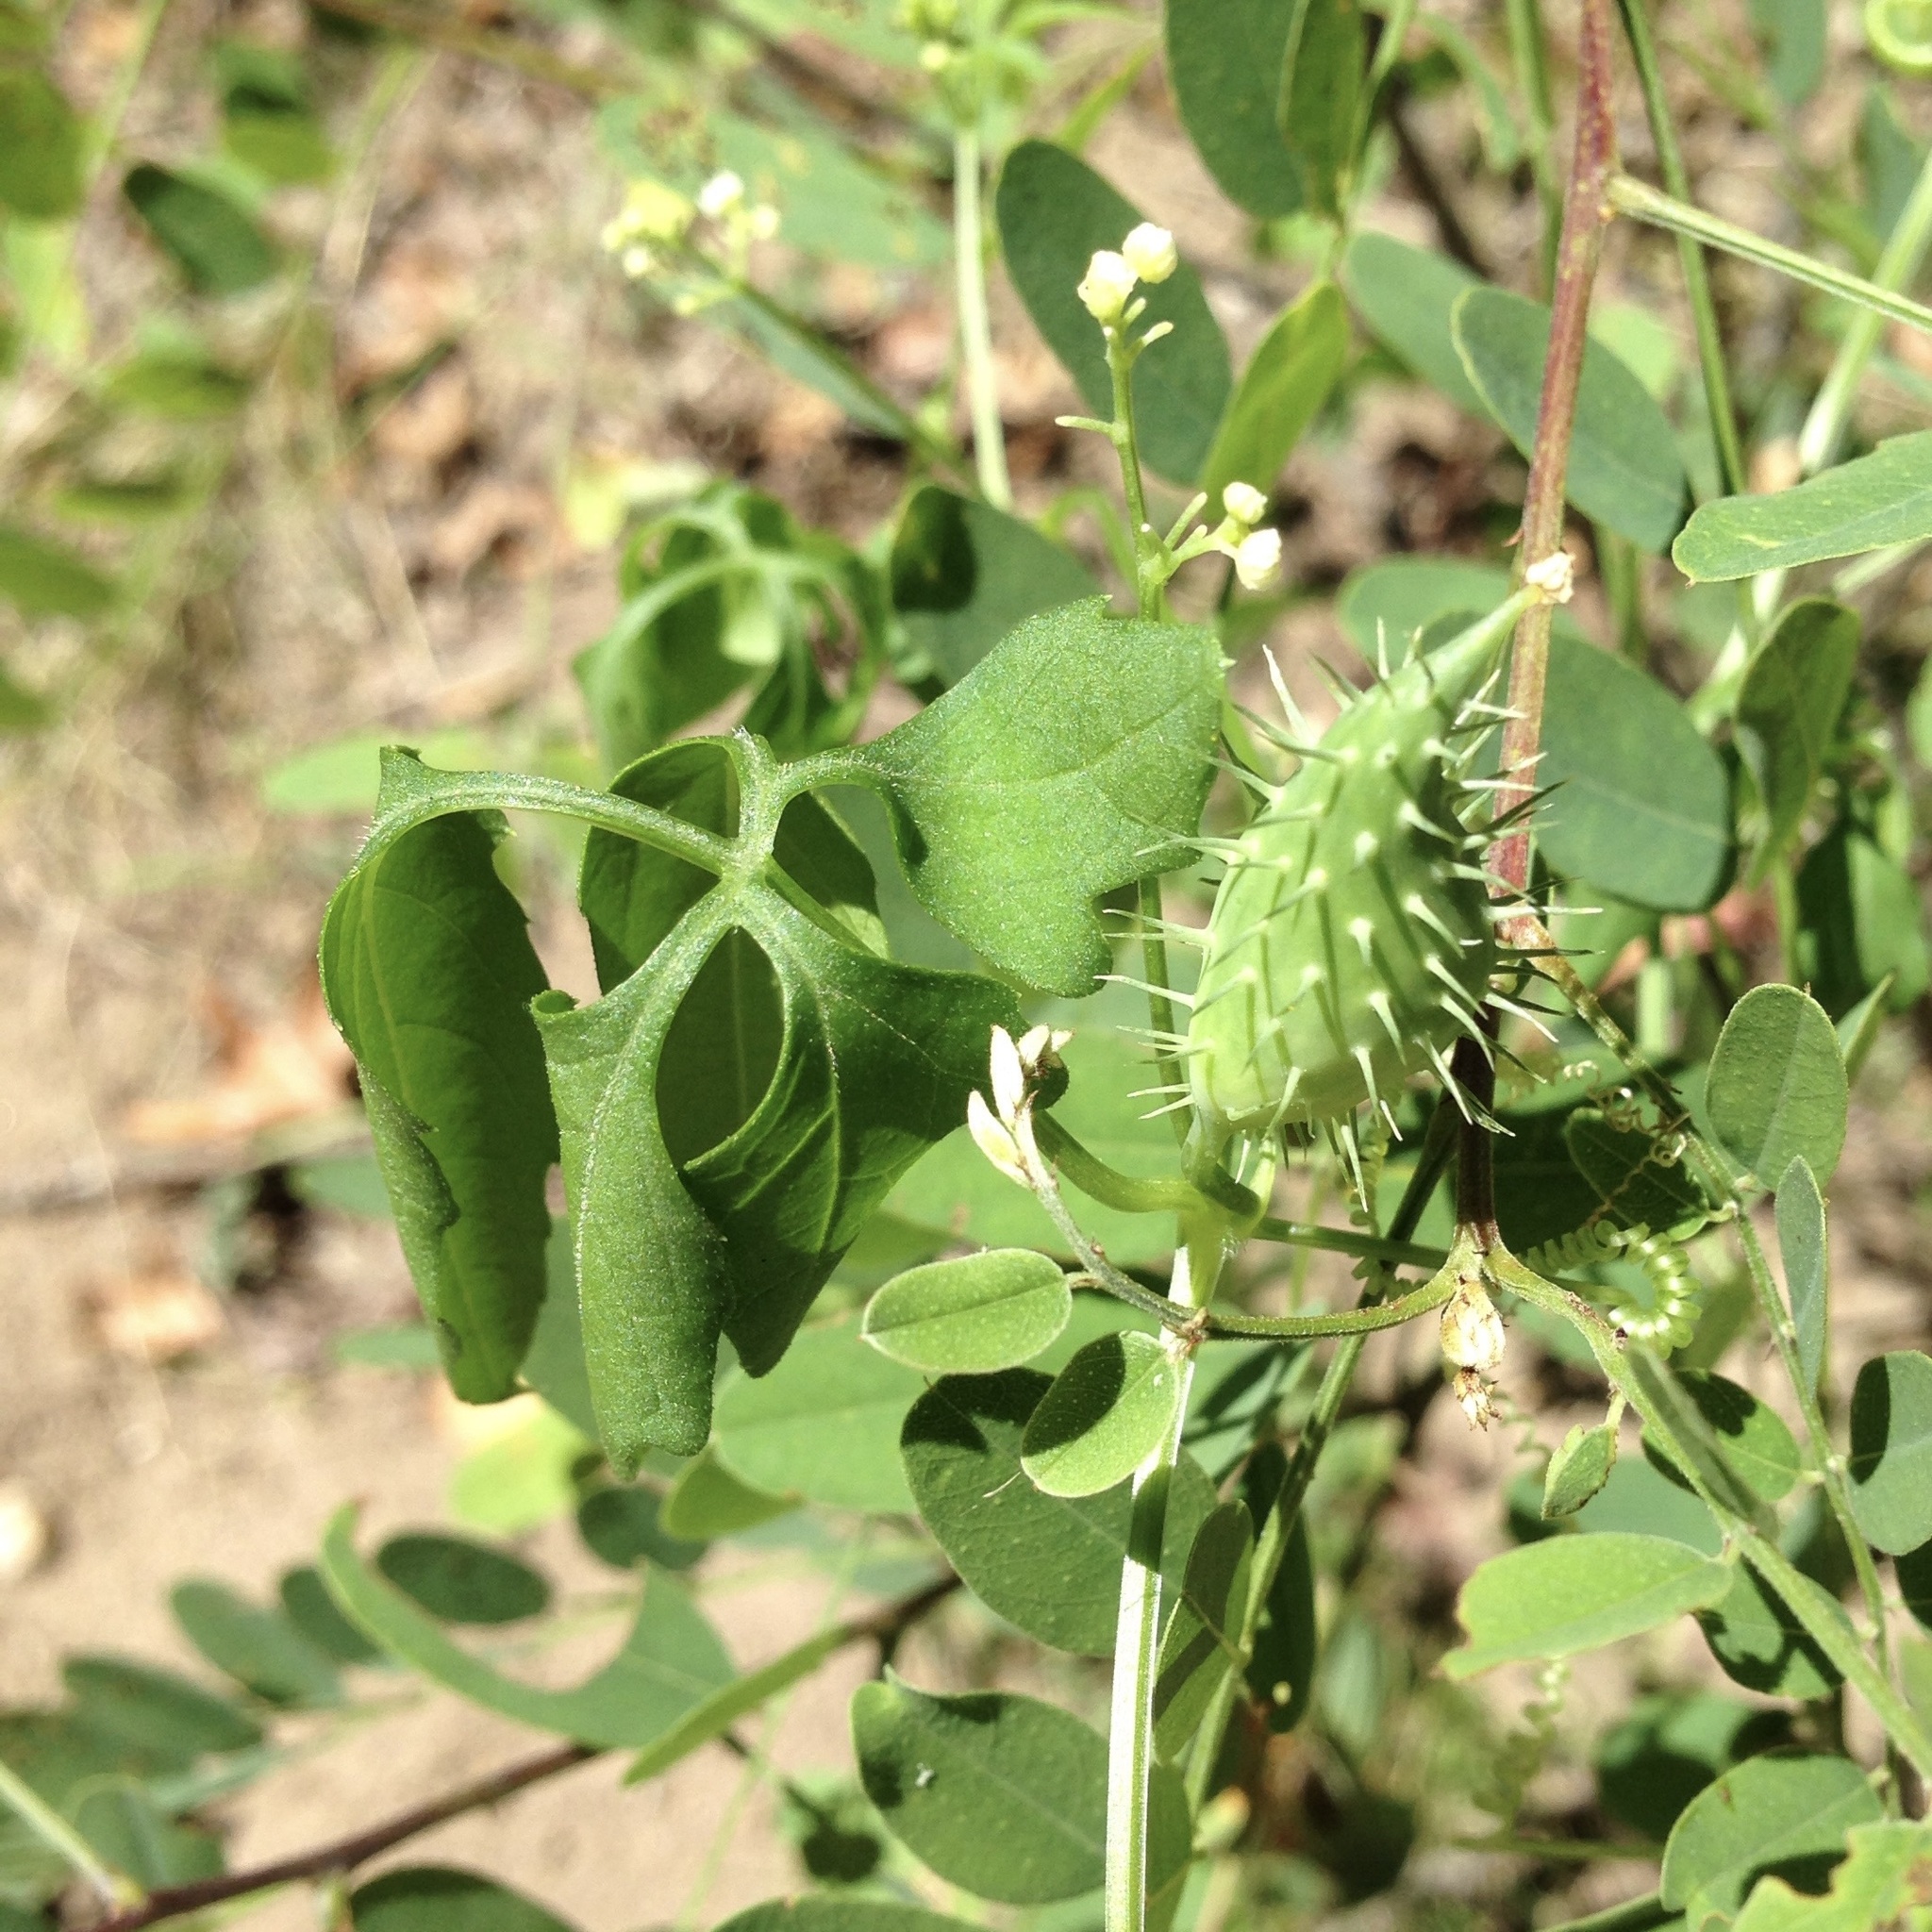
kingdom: Plantae
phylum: Tracheophyta
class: Magnoliopsida
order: Cucurbitales
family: Cucurbitaceae
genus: Cyclanthera
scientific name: Cyclanthera gracillima
